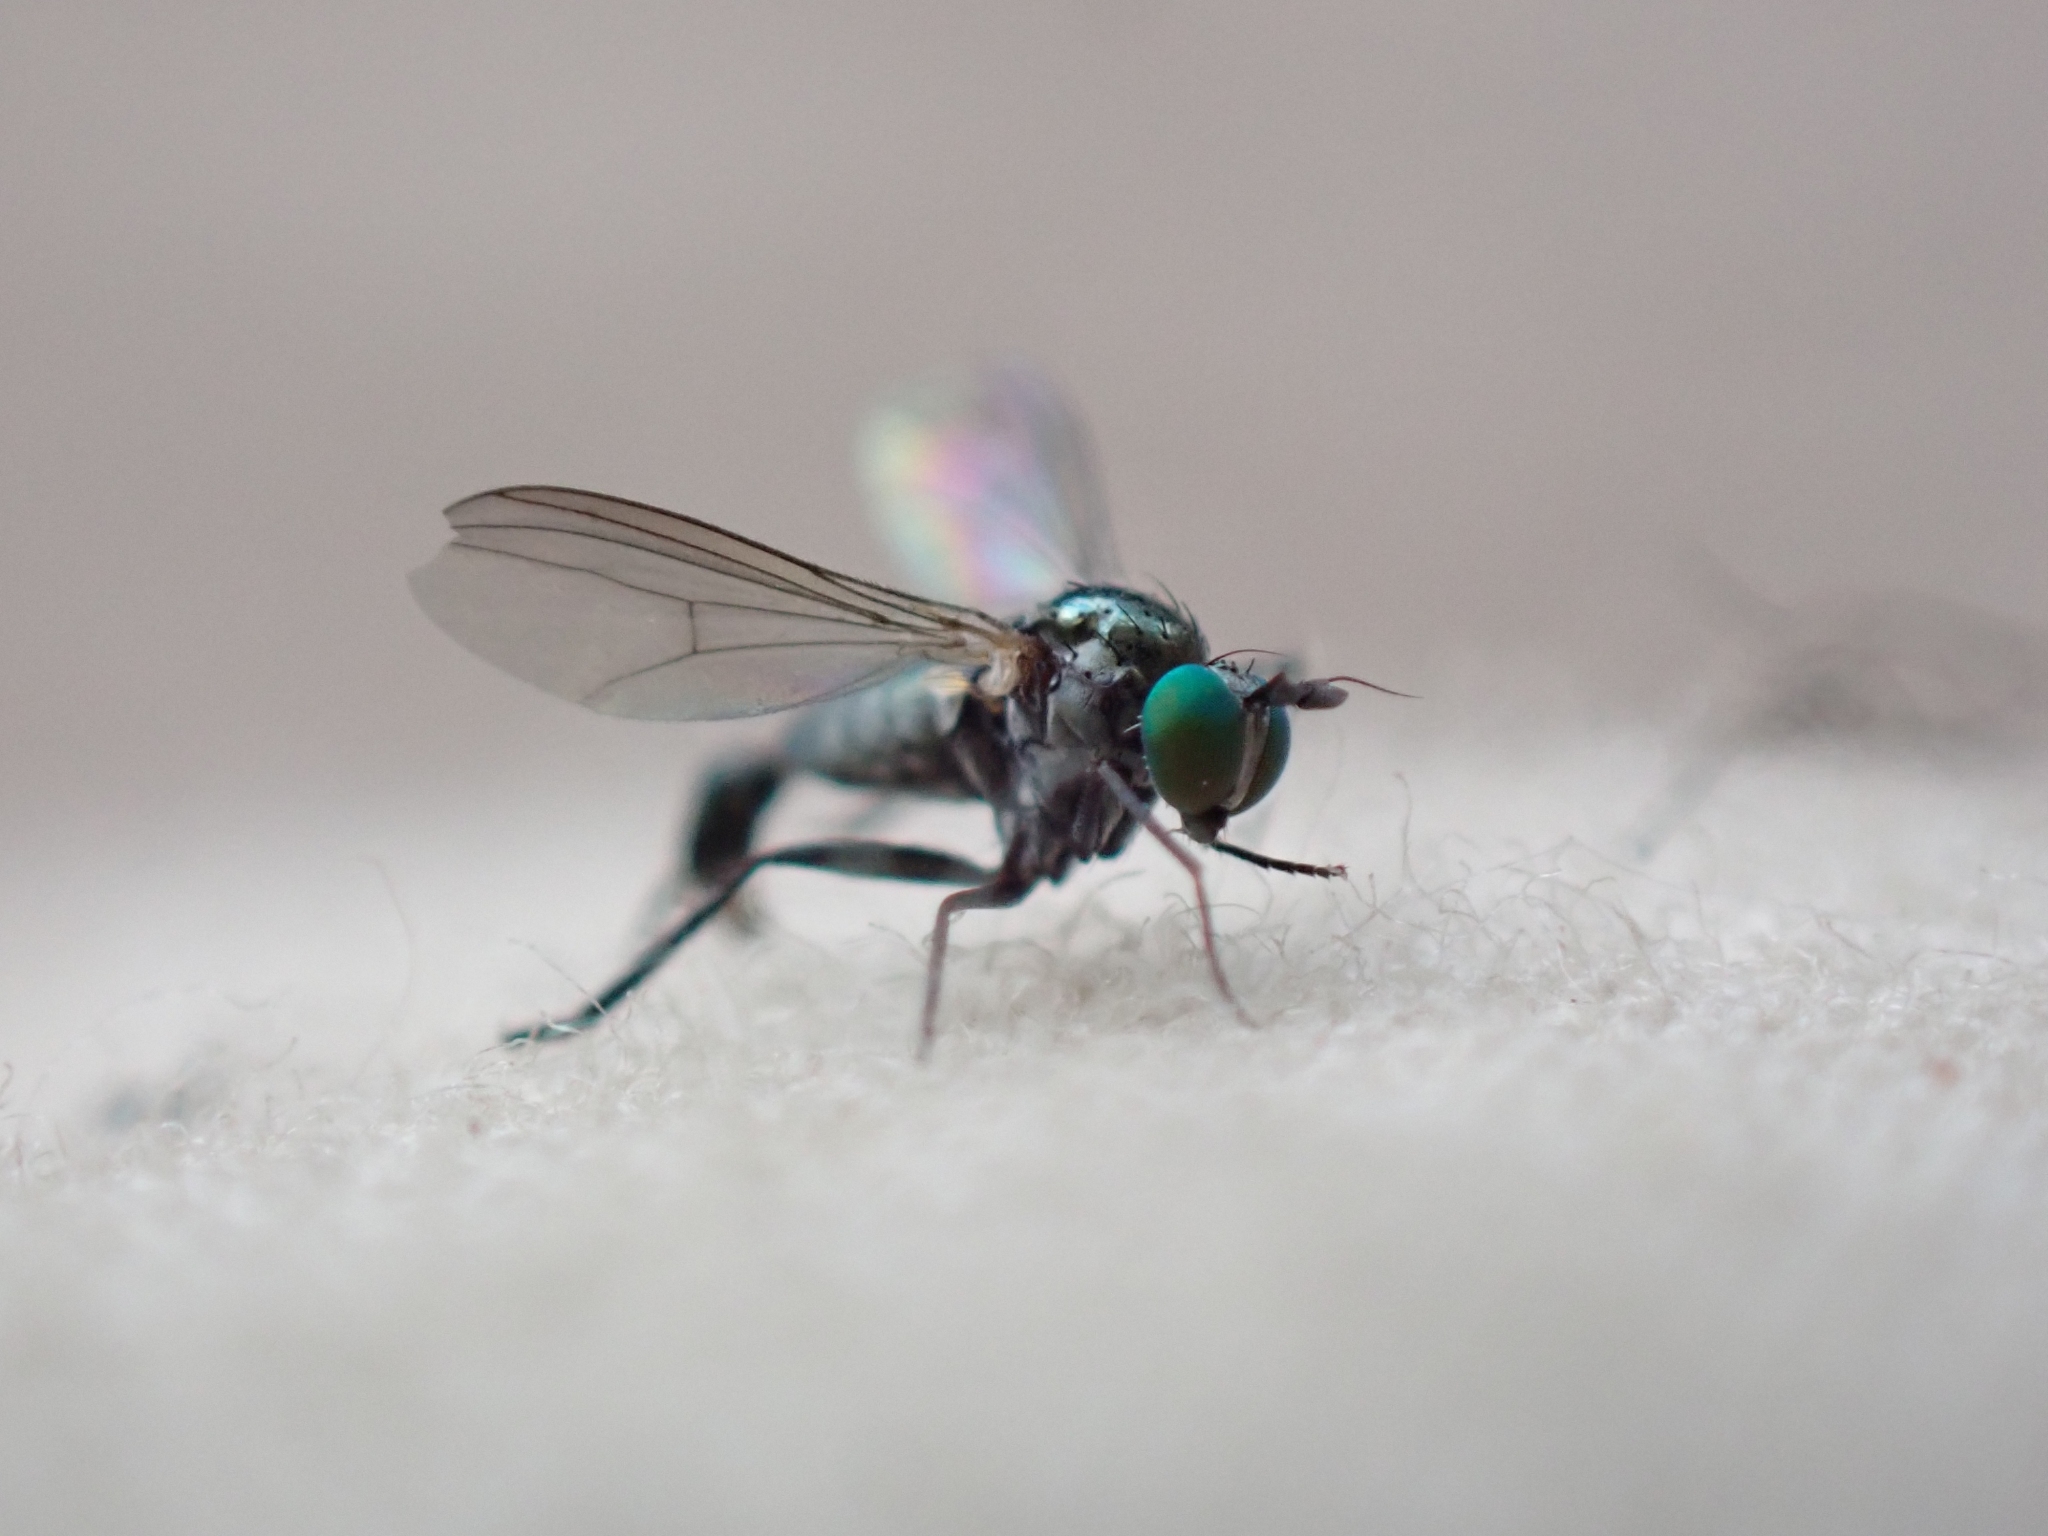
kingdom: Animalia
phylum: Arthropoda
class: Insecta
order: Diptera
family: Dolichopodidae
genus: Hercostomus
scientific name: Hercostomus unicolor
